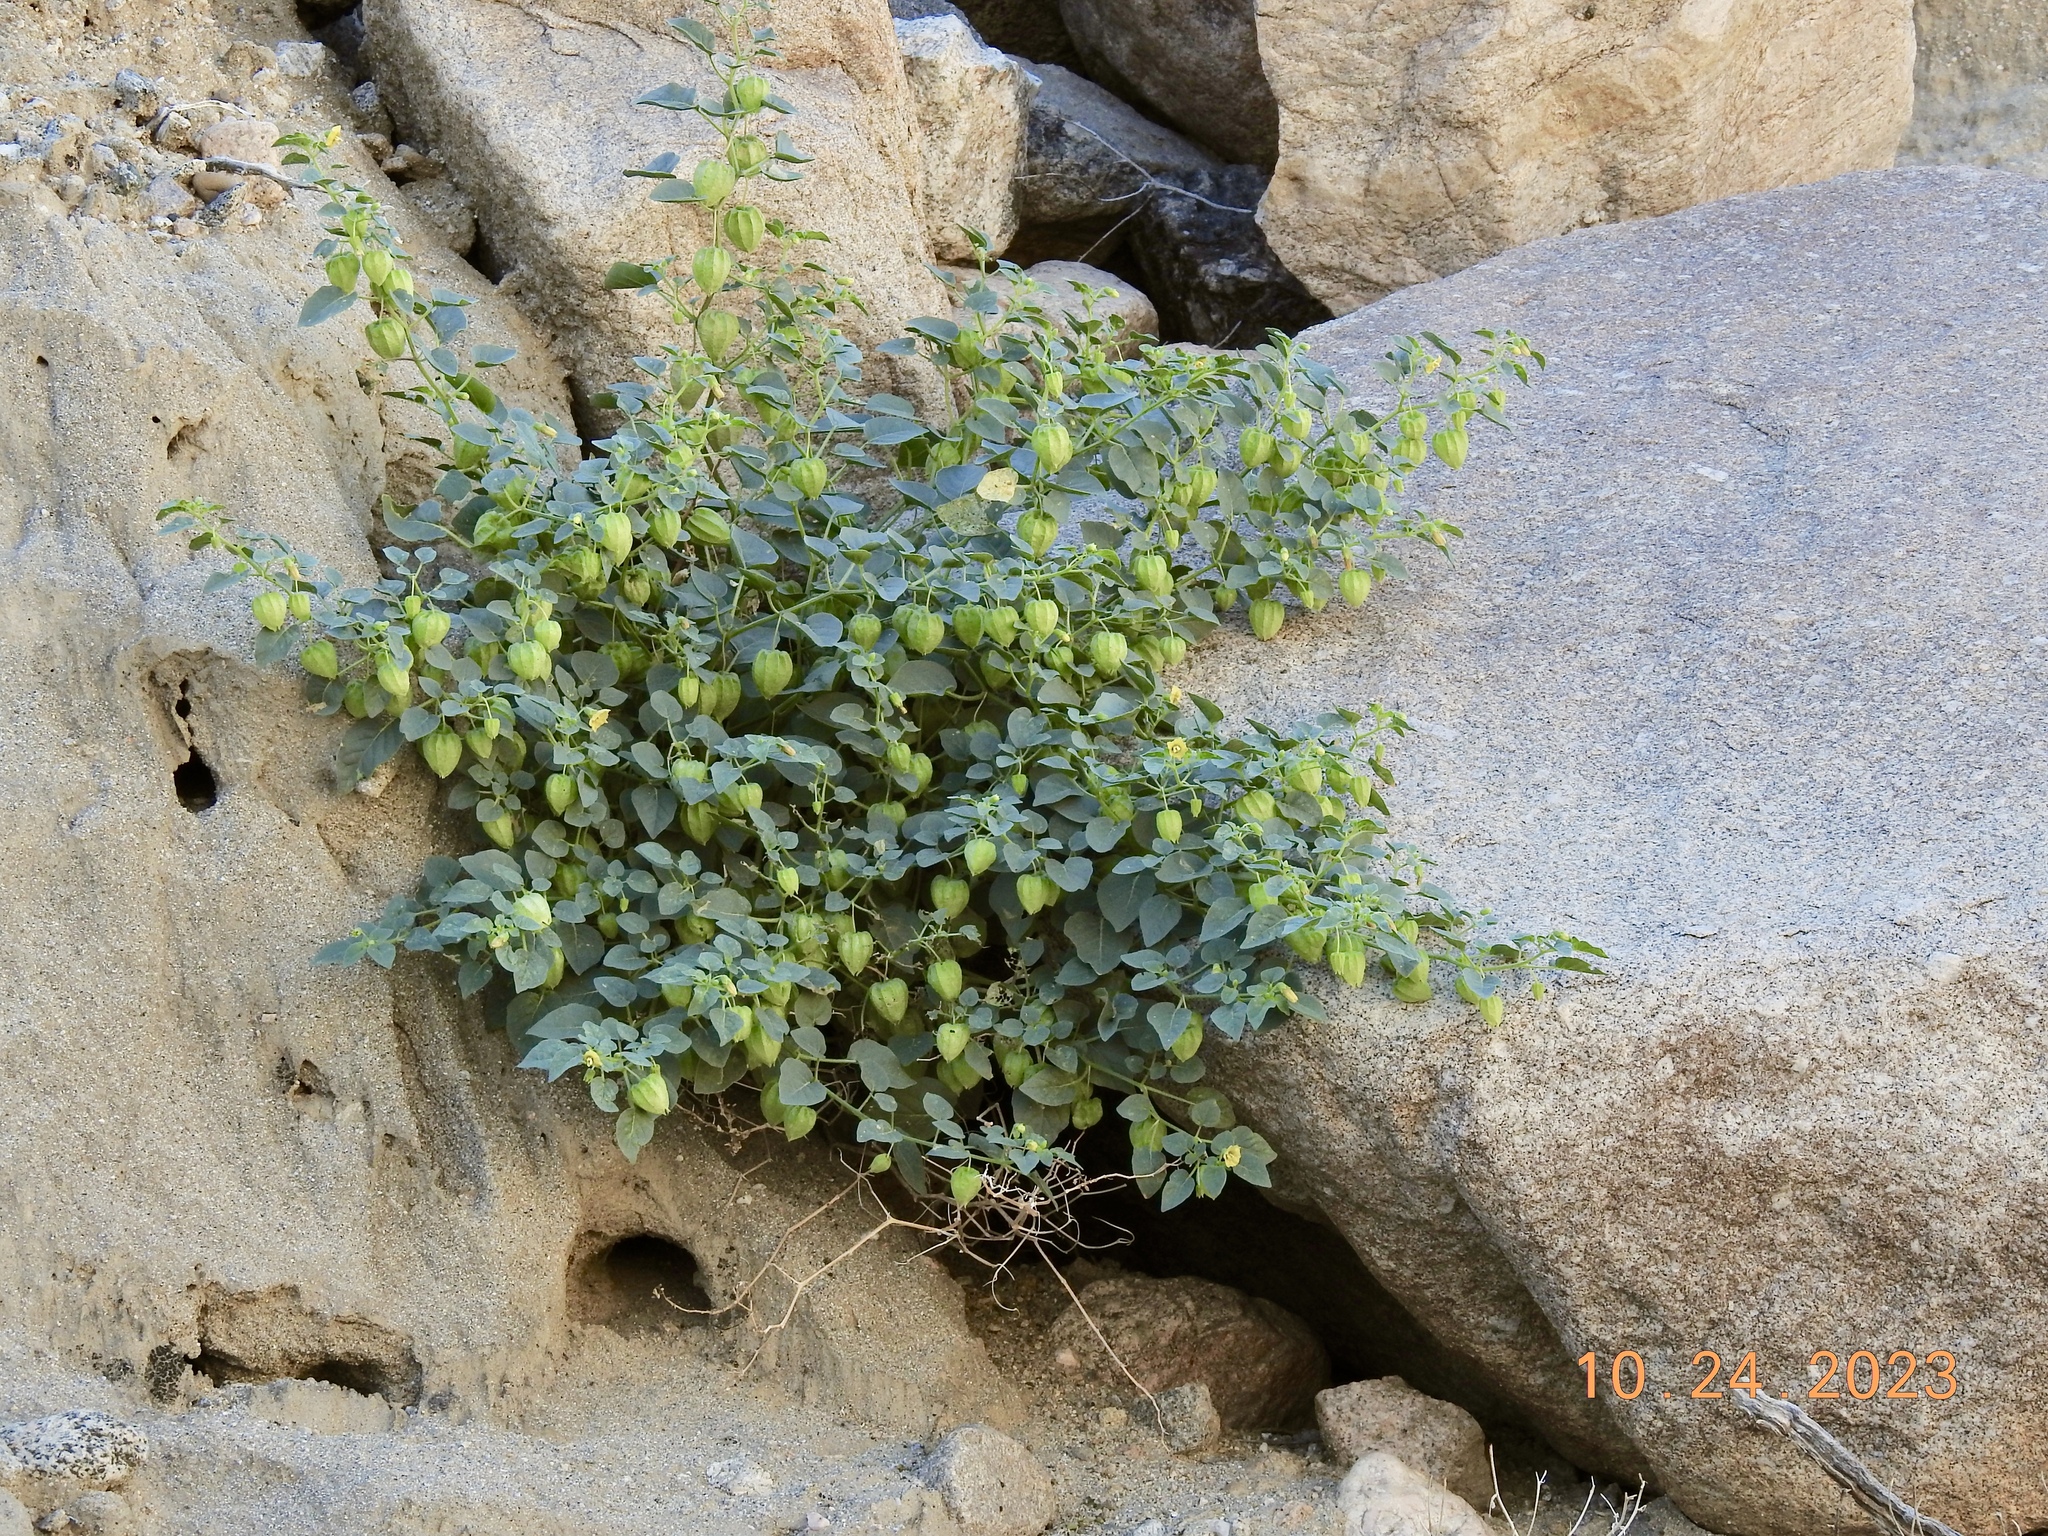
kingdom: Plantae
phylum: Tracheophyta
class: Magnoliopsida
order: Solanales
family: Solanaceae
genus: Physalis
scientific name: Physalis crassifolia
